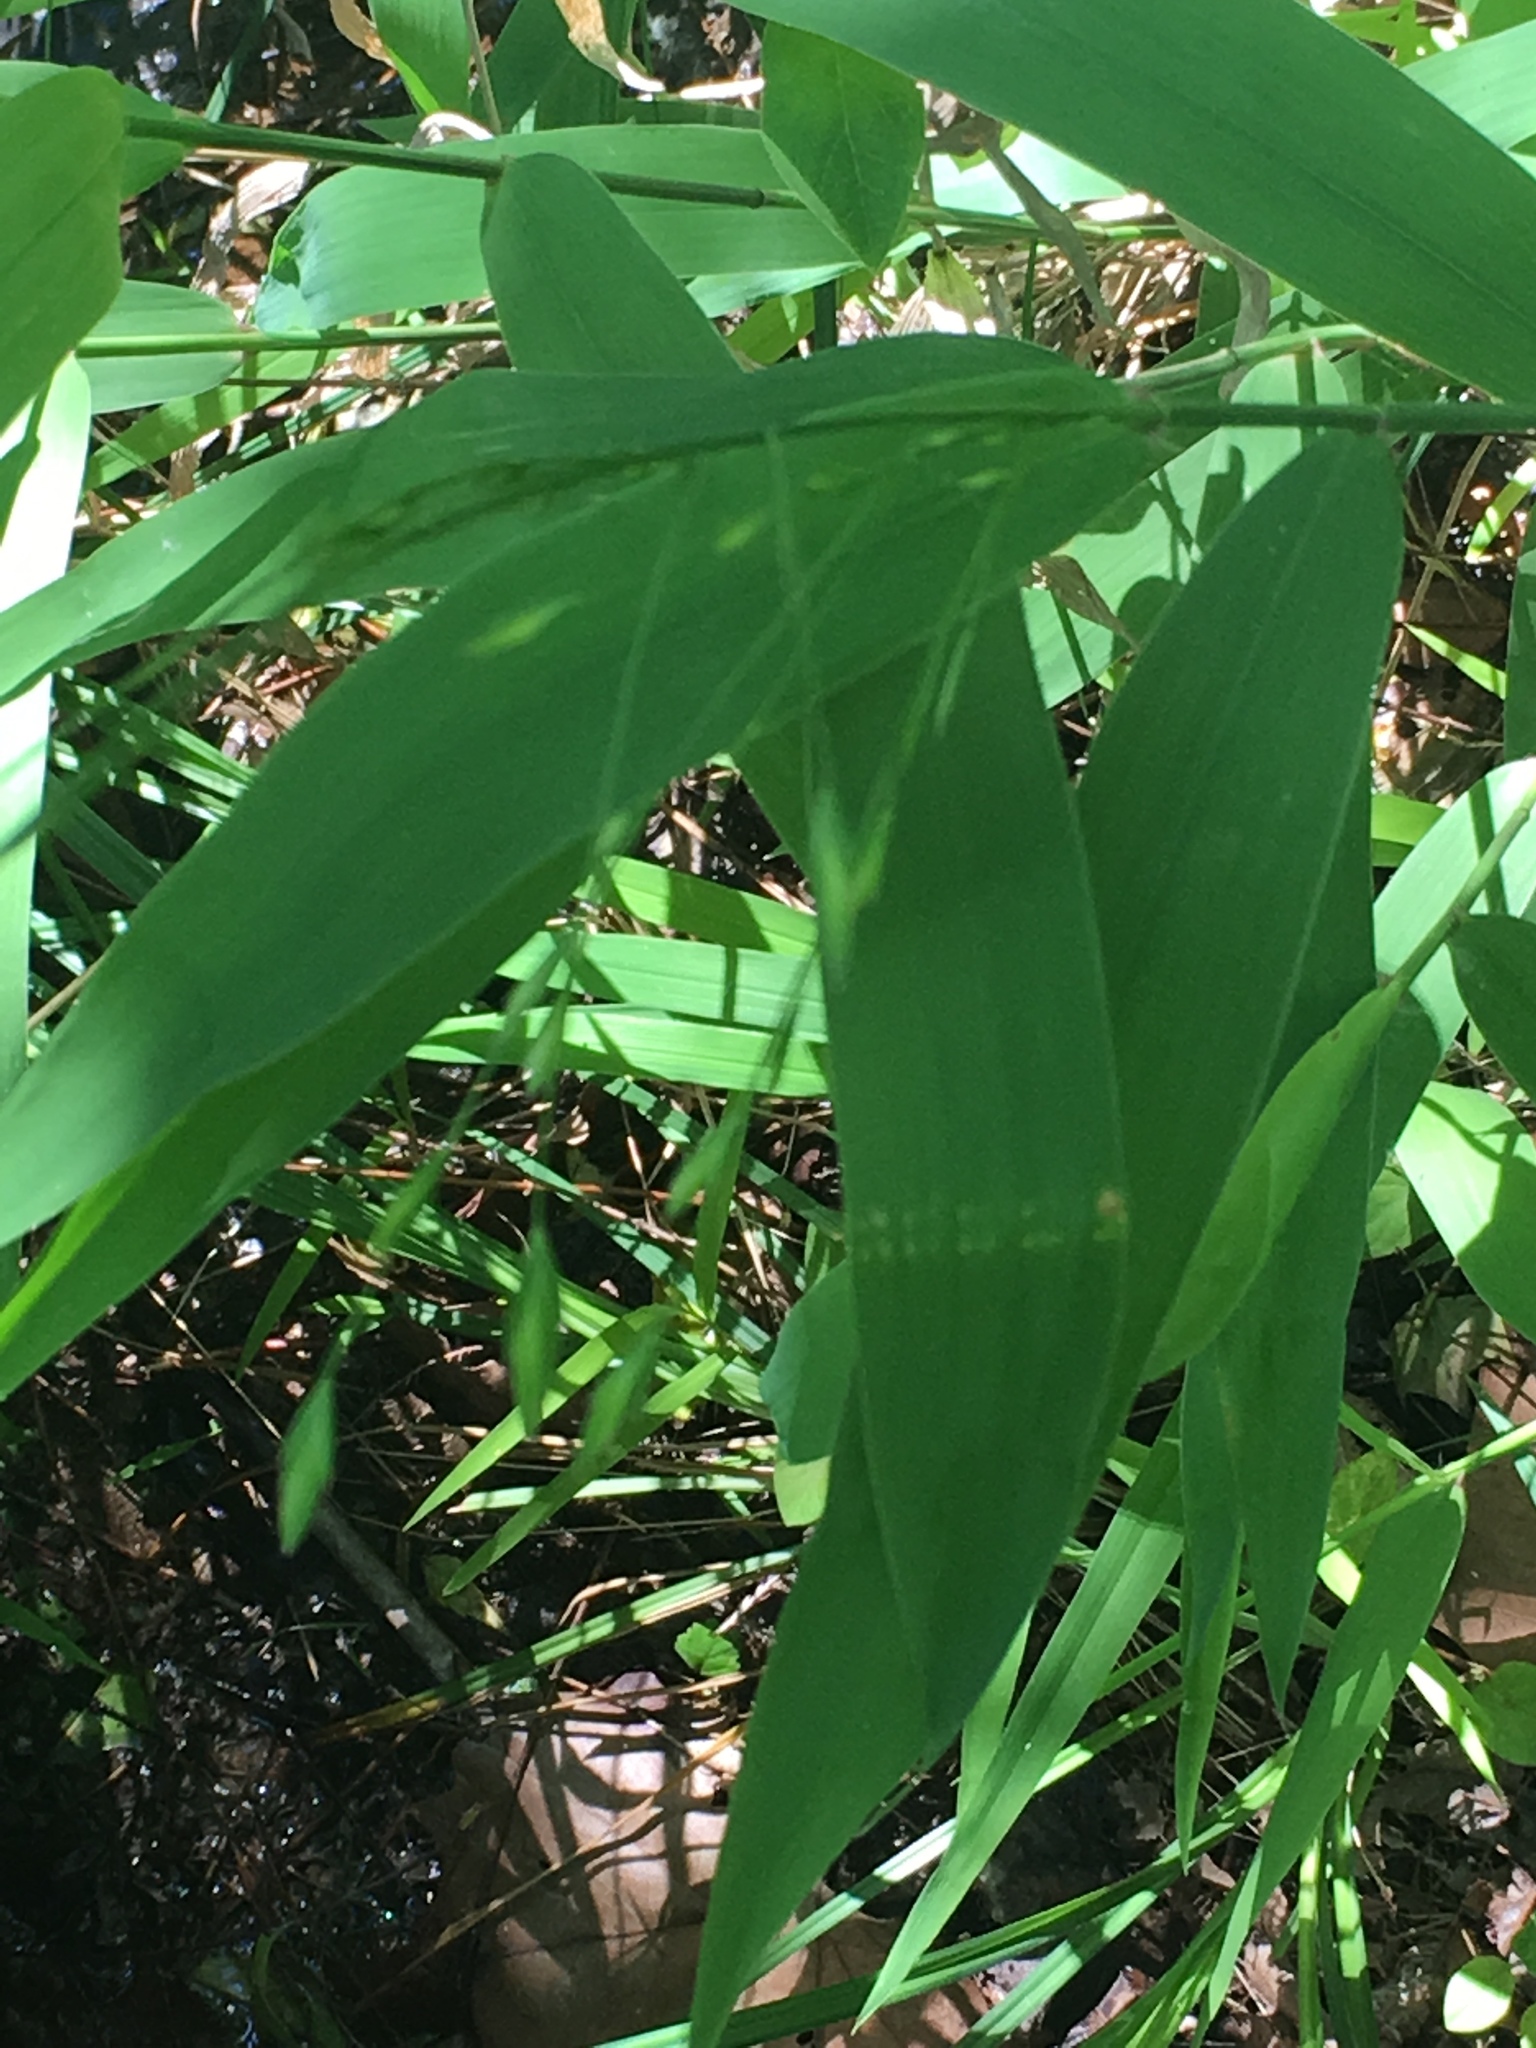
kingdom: Plantae
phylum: Tracheophyta
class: Liliopsida
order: Poales
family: Poaceae
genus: Chasmanthium
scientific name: Chasmanthium latifolium
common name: Broad-leaved chasmanthium
